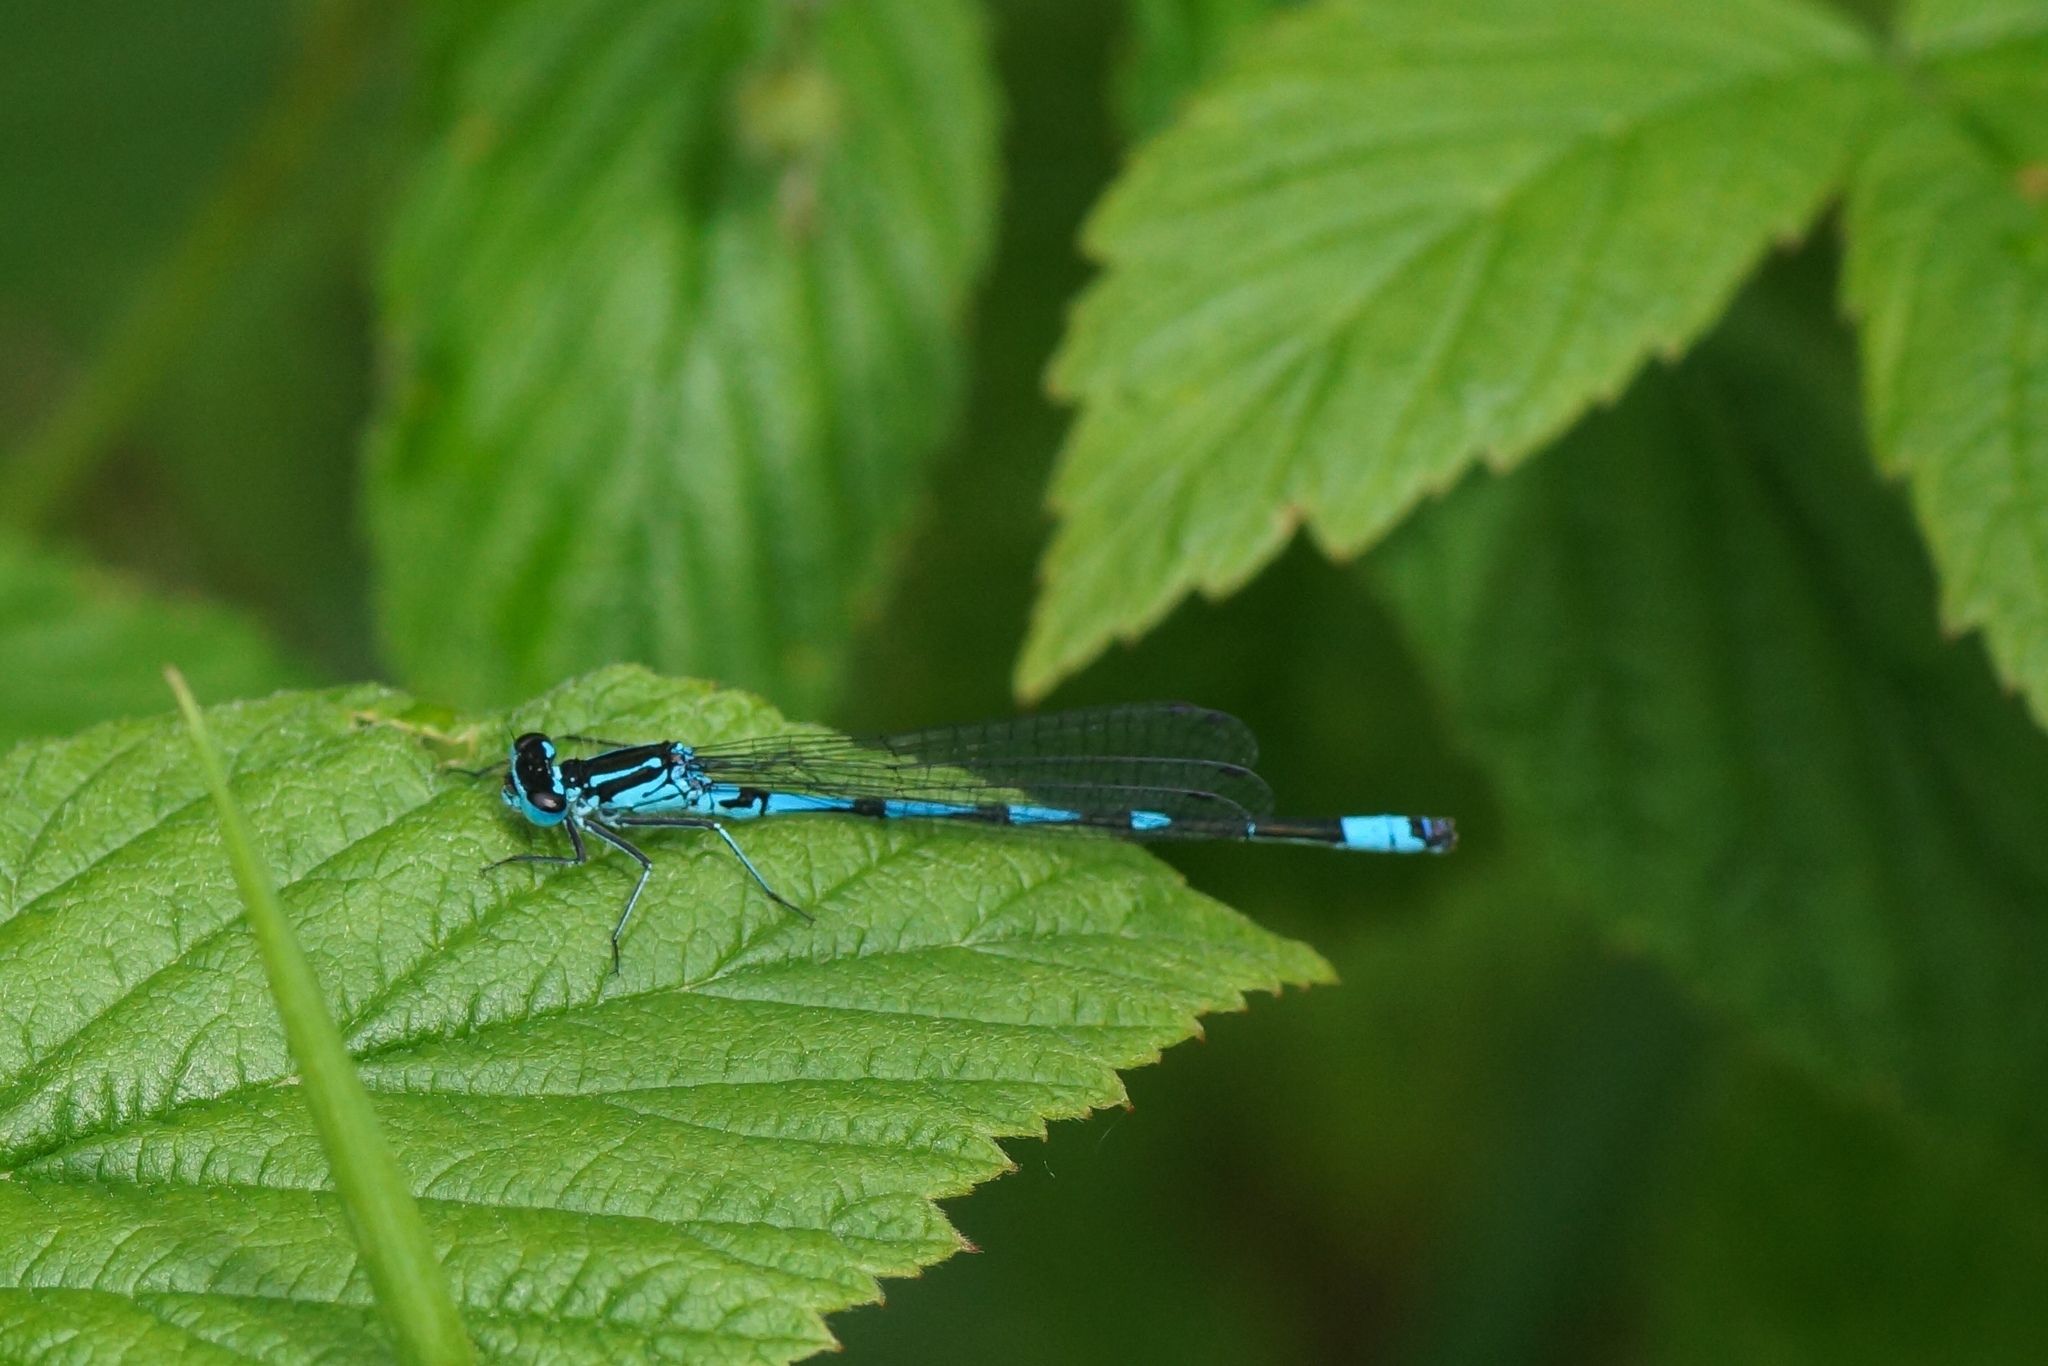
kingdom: Animalia
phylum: Arthropoda
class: Insecta
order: Odonata
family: Coenagrionidae
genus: Coenagrion
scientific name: Coenagrion pulchellum
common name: Variable bluet
